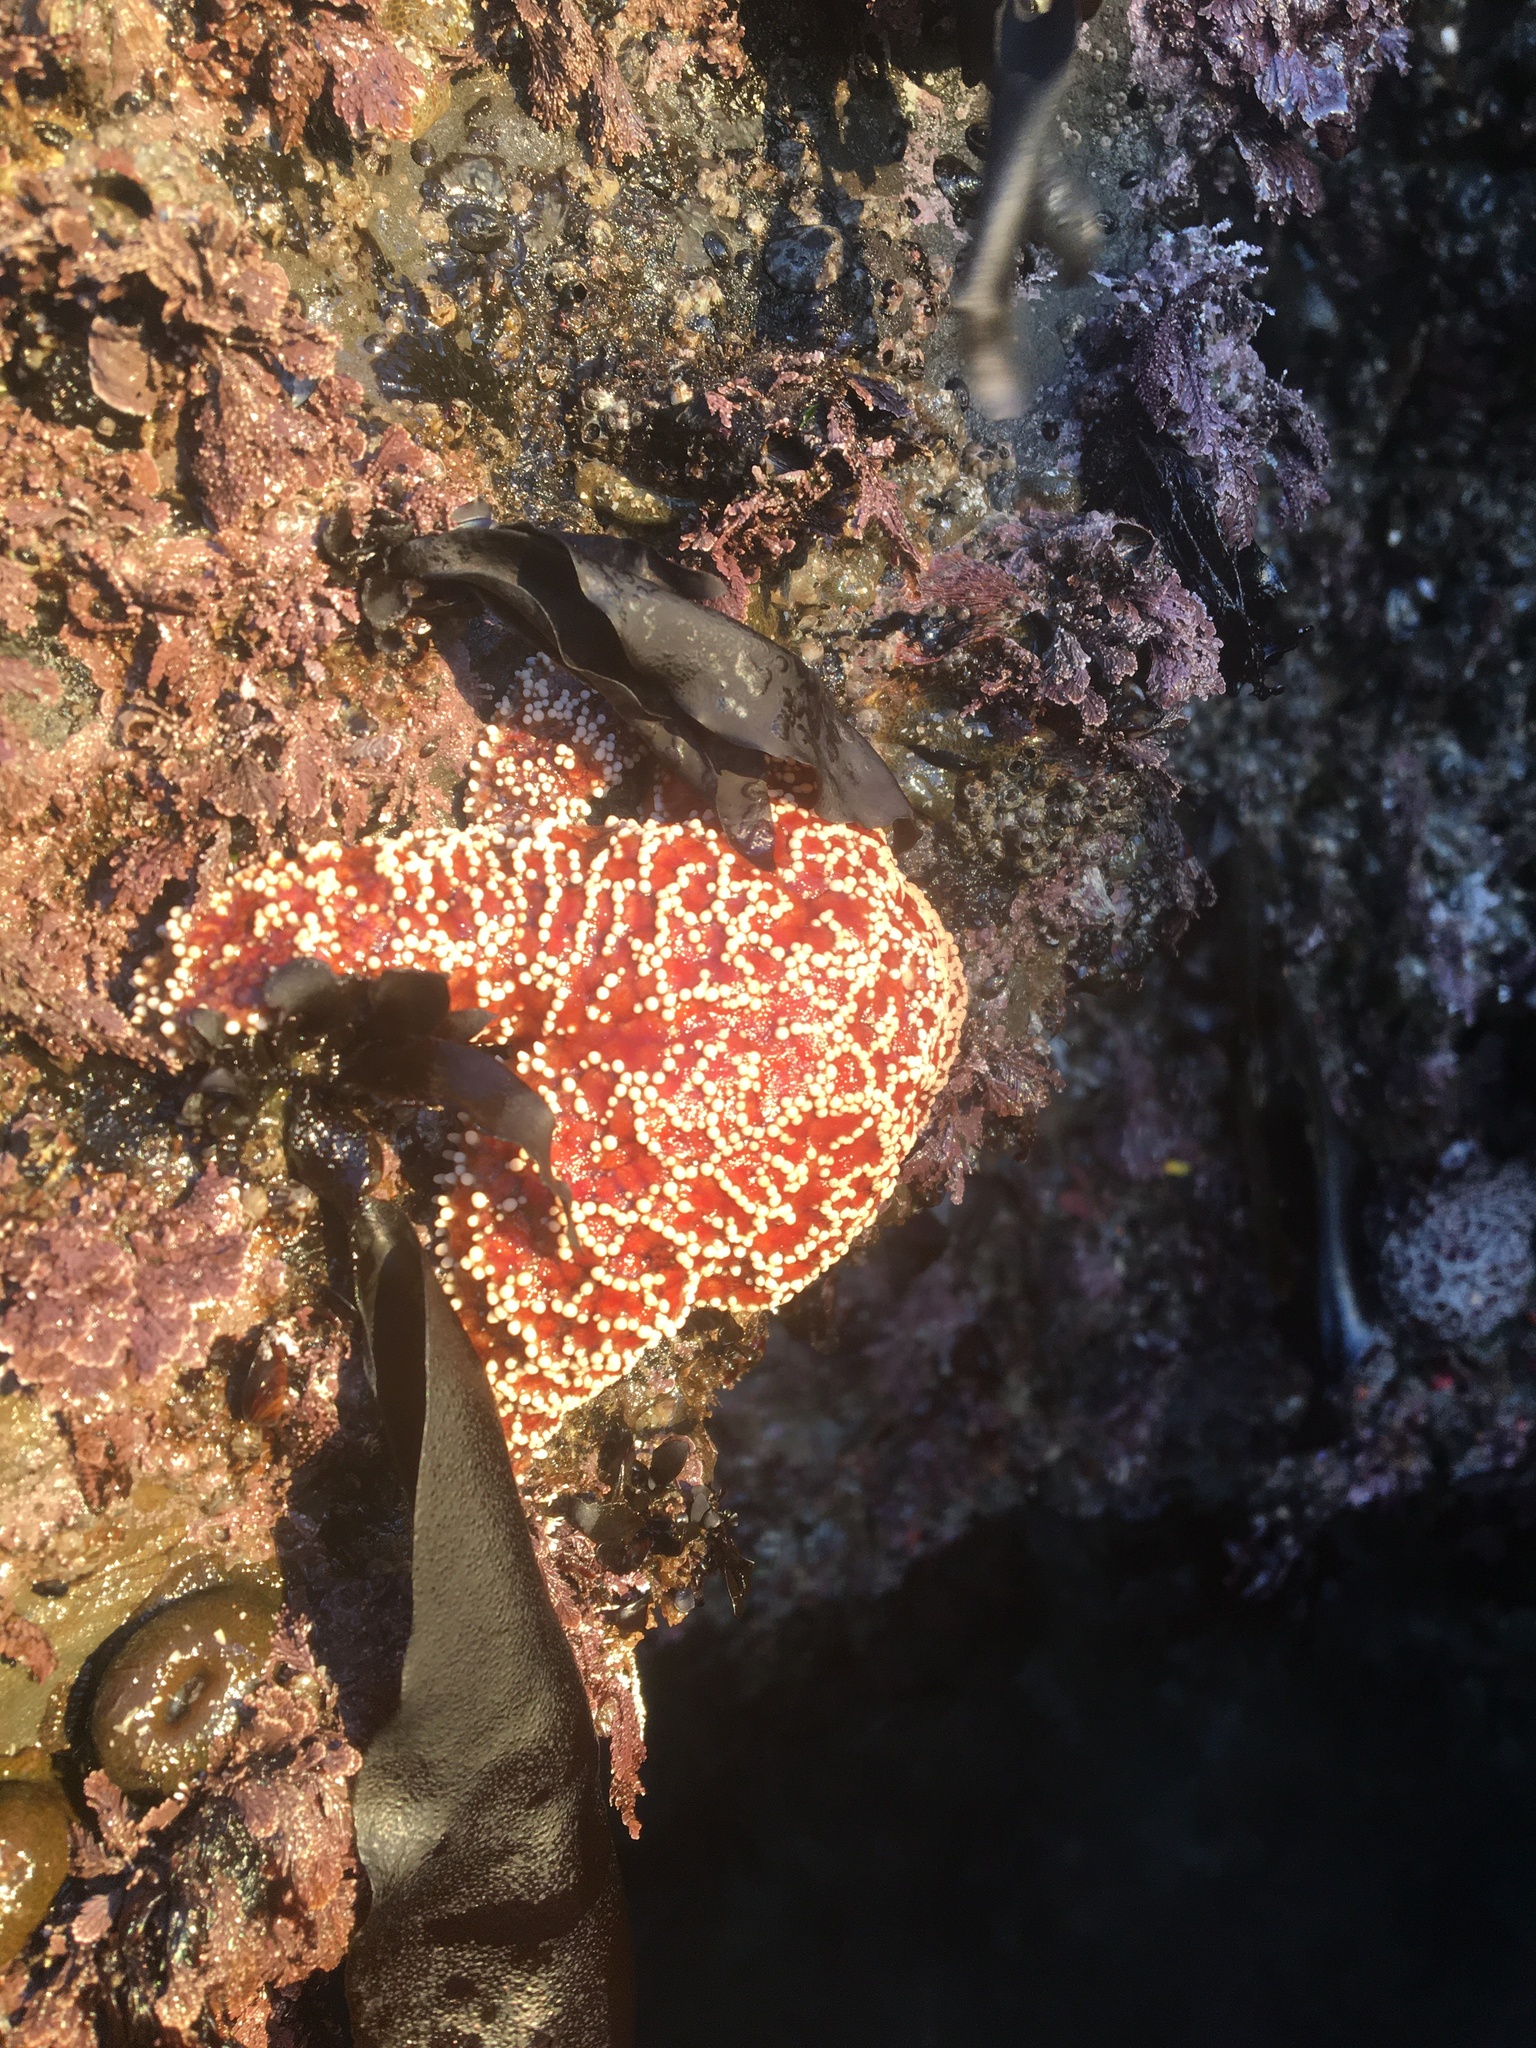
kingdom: Animalia
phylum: Echinodermata
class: Asteroidea
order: Forcipulatida
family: Asteriidae
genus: Pisaster
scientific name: Pisaster ochraceus
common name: Ochre stars
